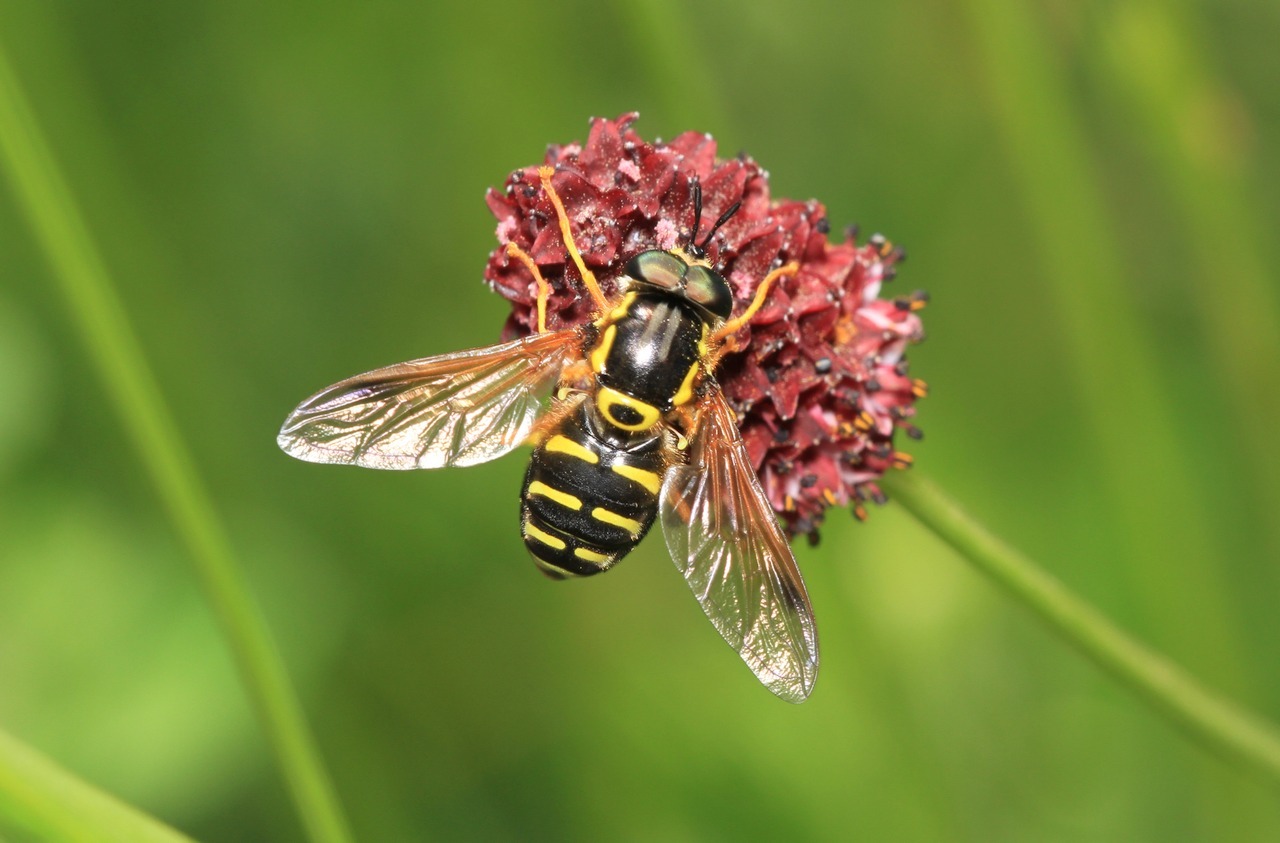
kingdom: Animalia
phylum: Arthropoda
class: Insecta
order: Diptera
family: Syrphidae
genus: Chrysotoxum
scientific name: Chrysotoxum festivum
